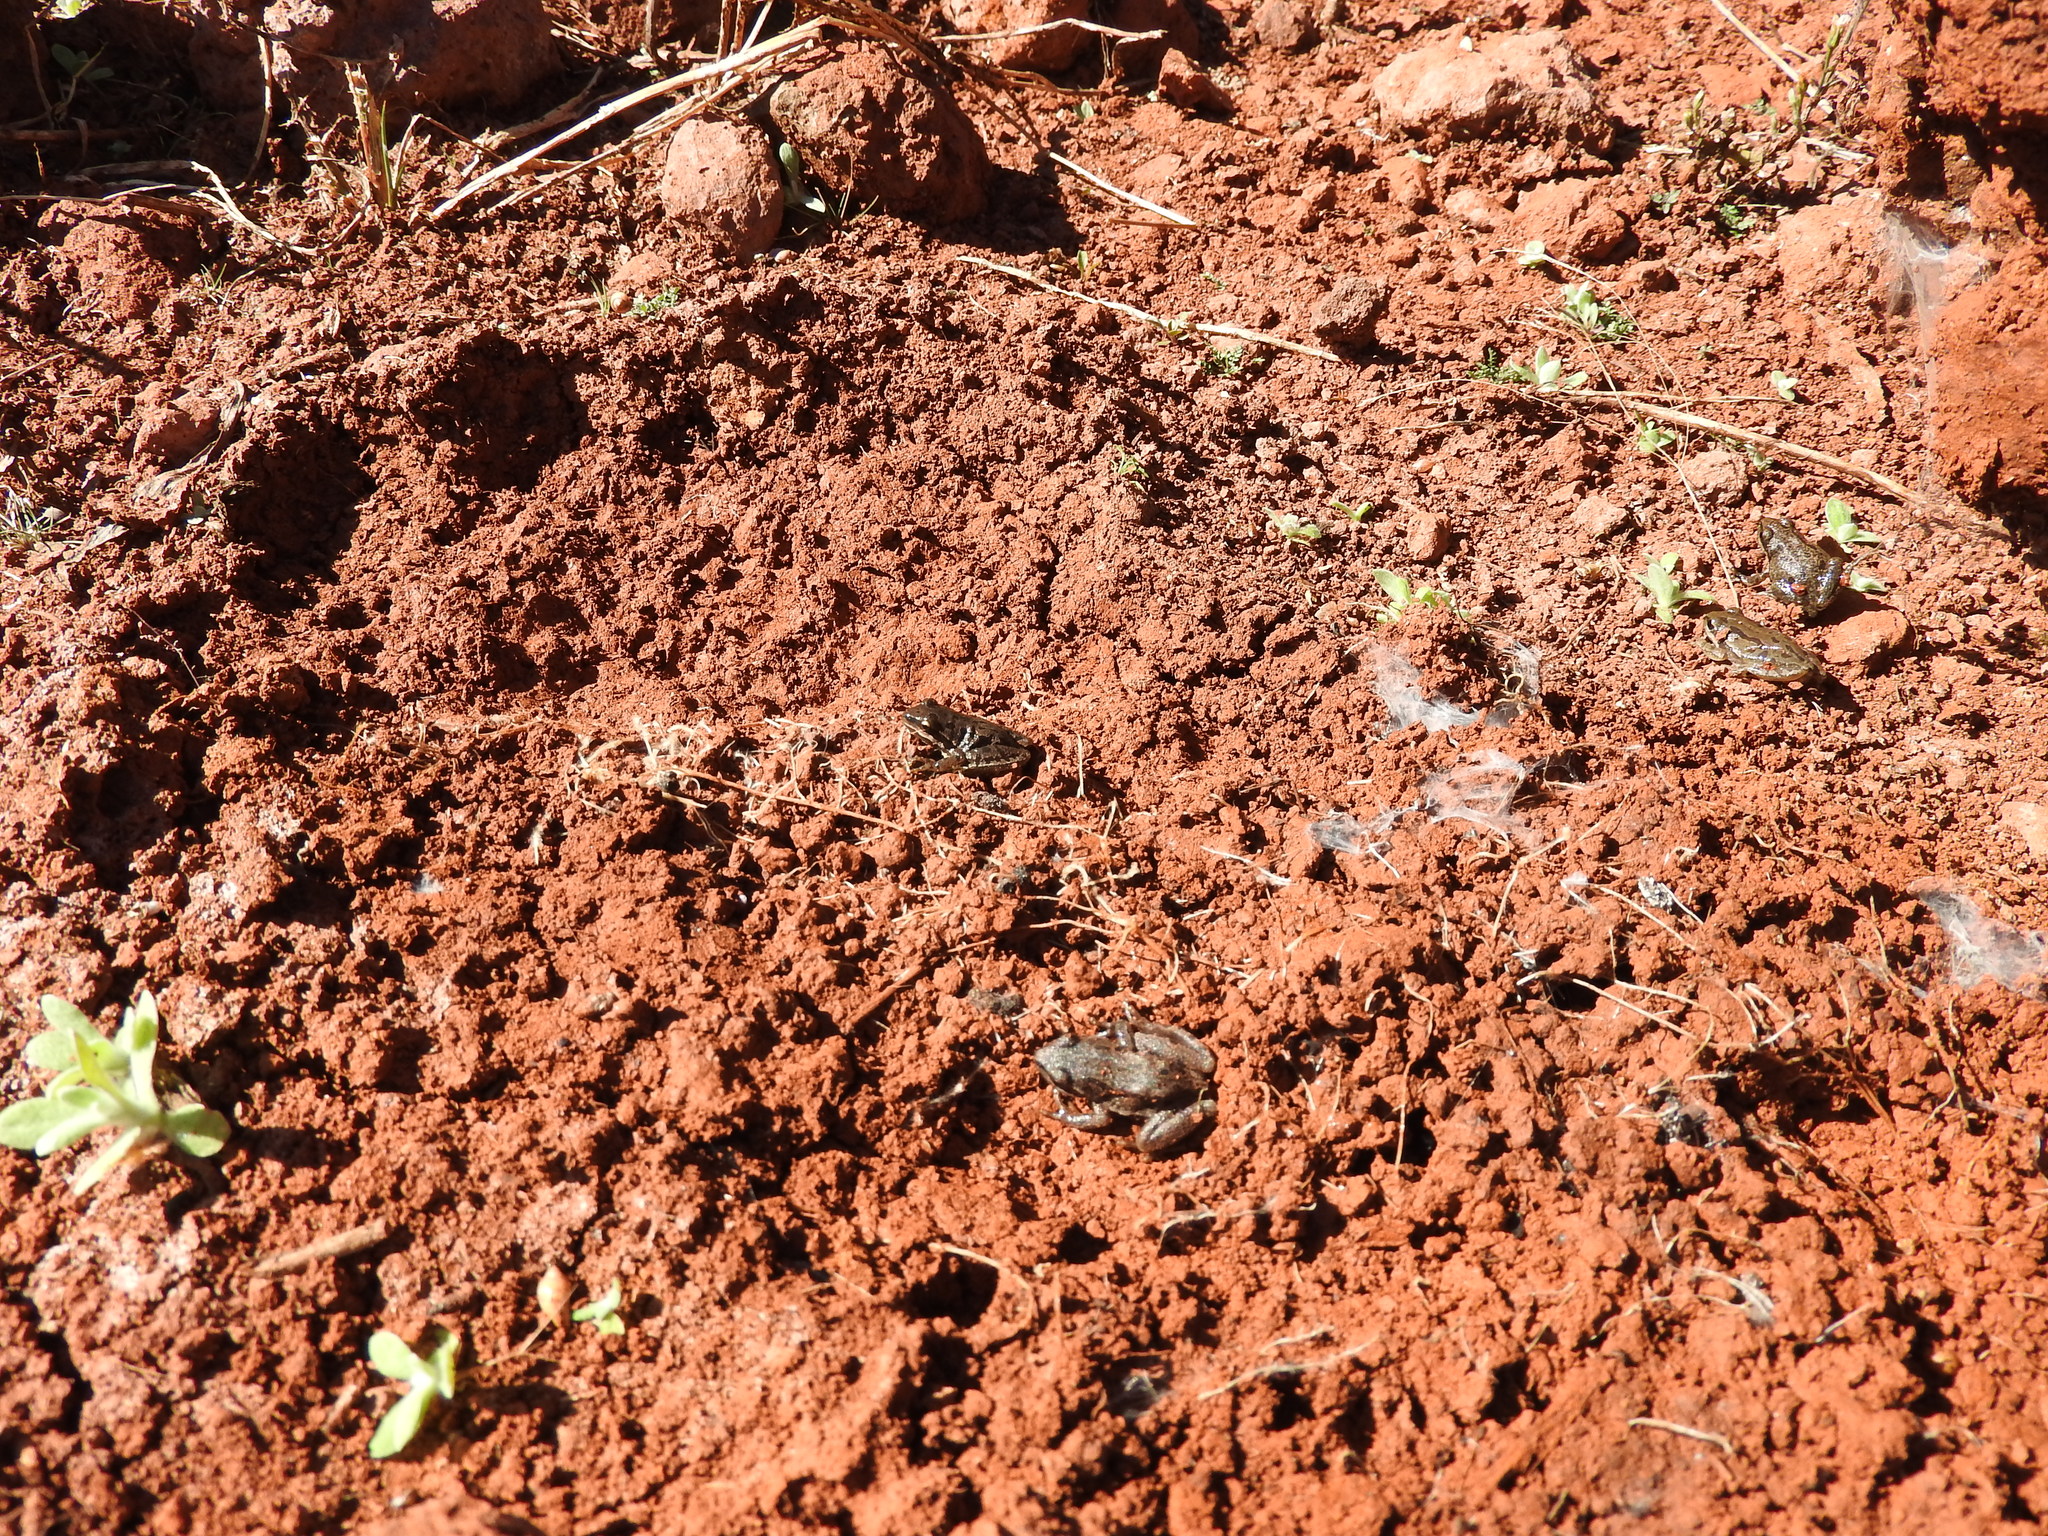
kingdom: Animalia
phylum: Chordata
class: Amphibia
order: Anura
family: Hylidae
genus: Dryophytes
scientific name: Dryophytes eximius
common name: Mountain treefrog
